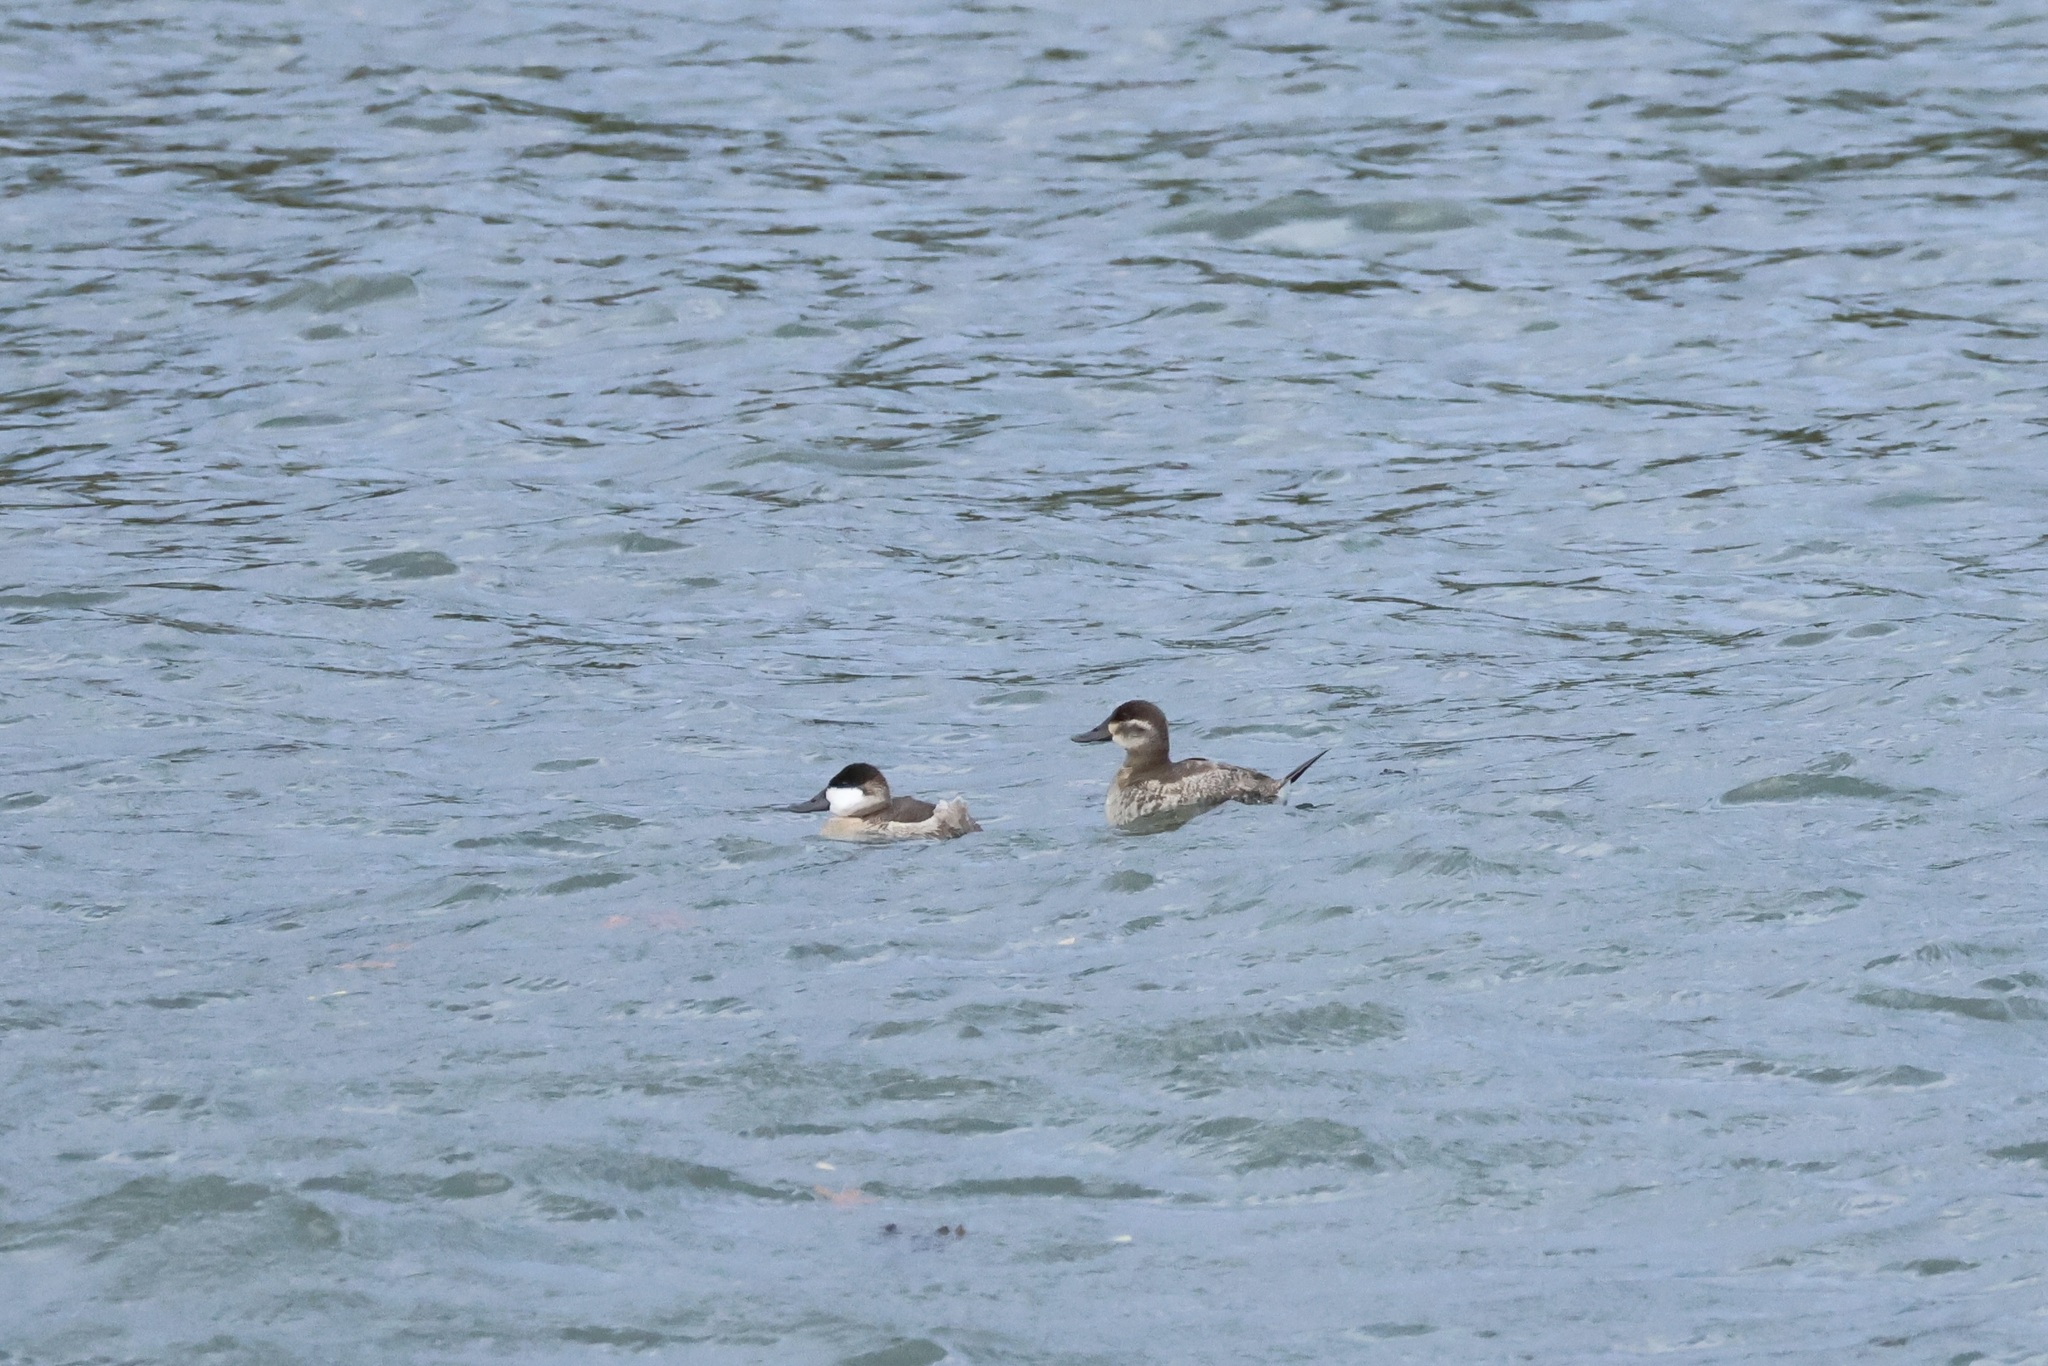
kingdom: Animalia
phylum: Chordata
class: Aves
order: Anseriformes
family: Anatidae
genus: Oxyura
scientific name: Oxyura jamaicensis
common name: Ruddy duck
